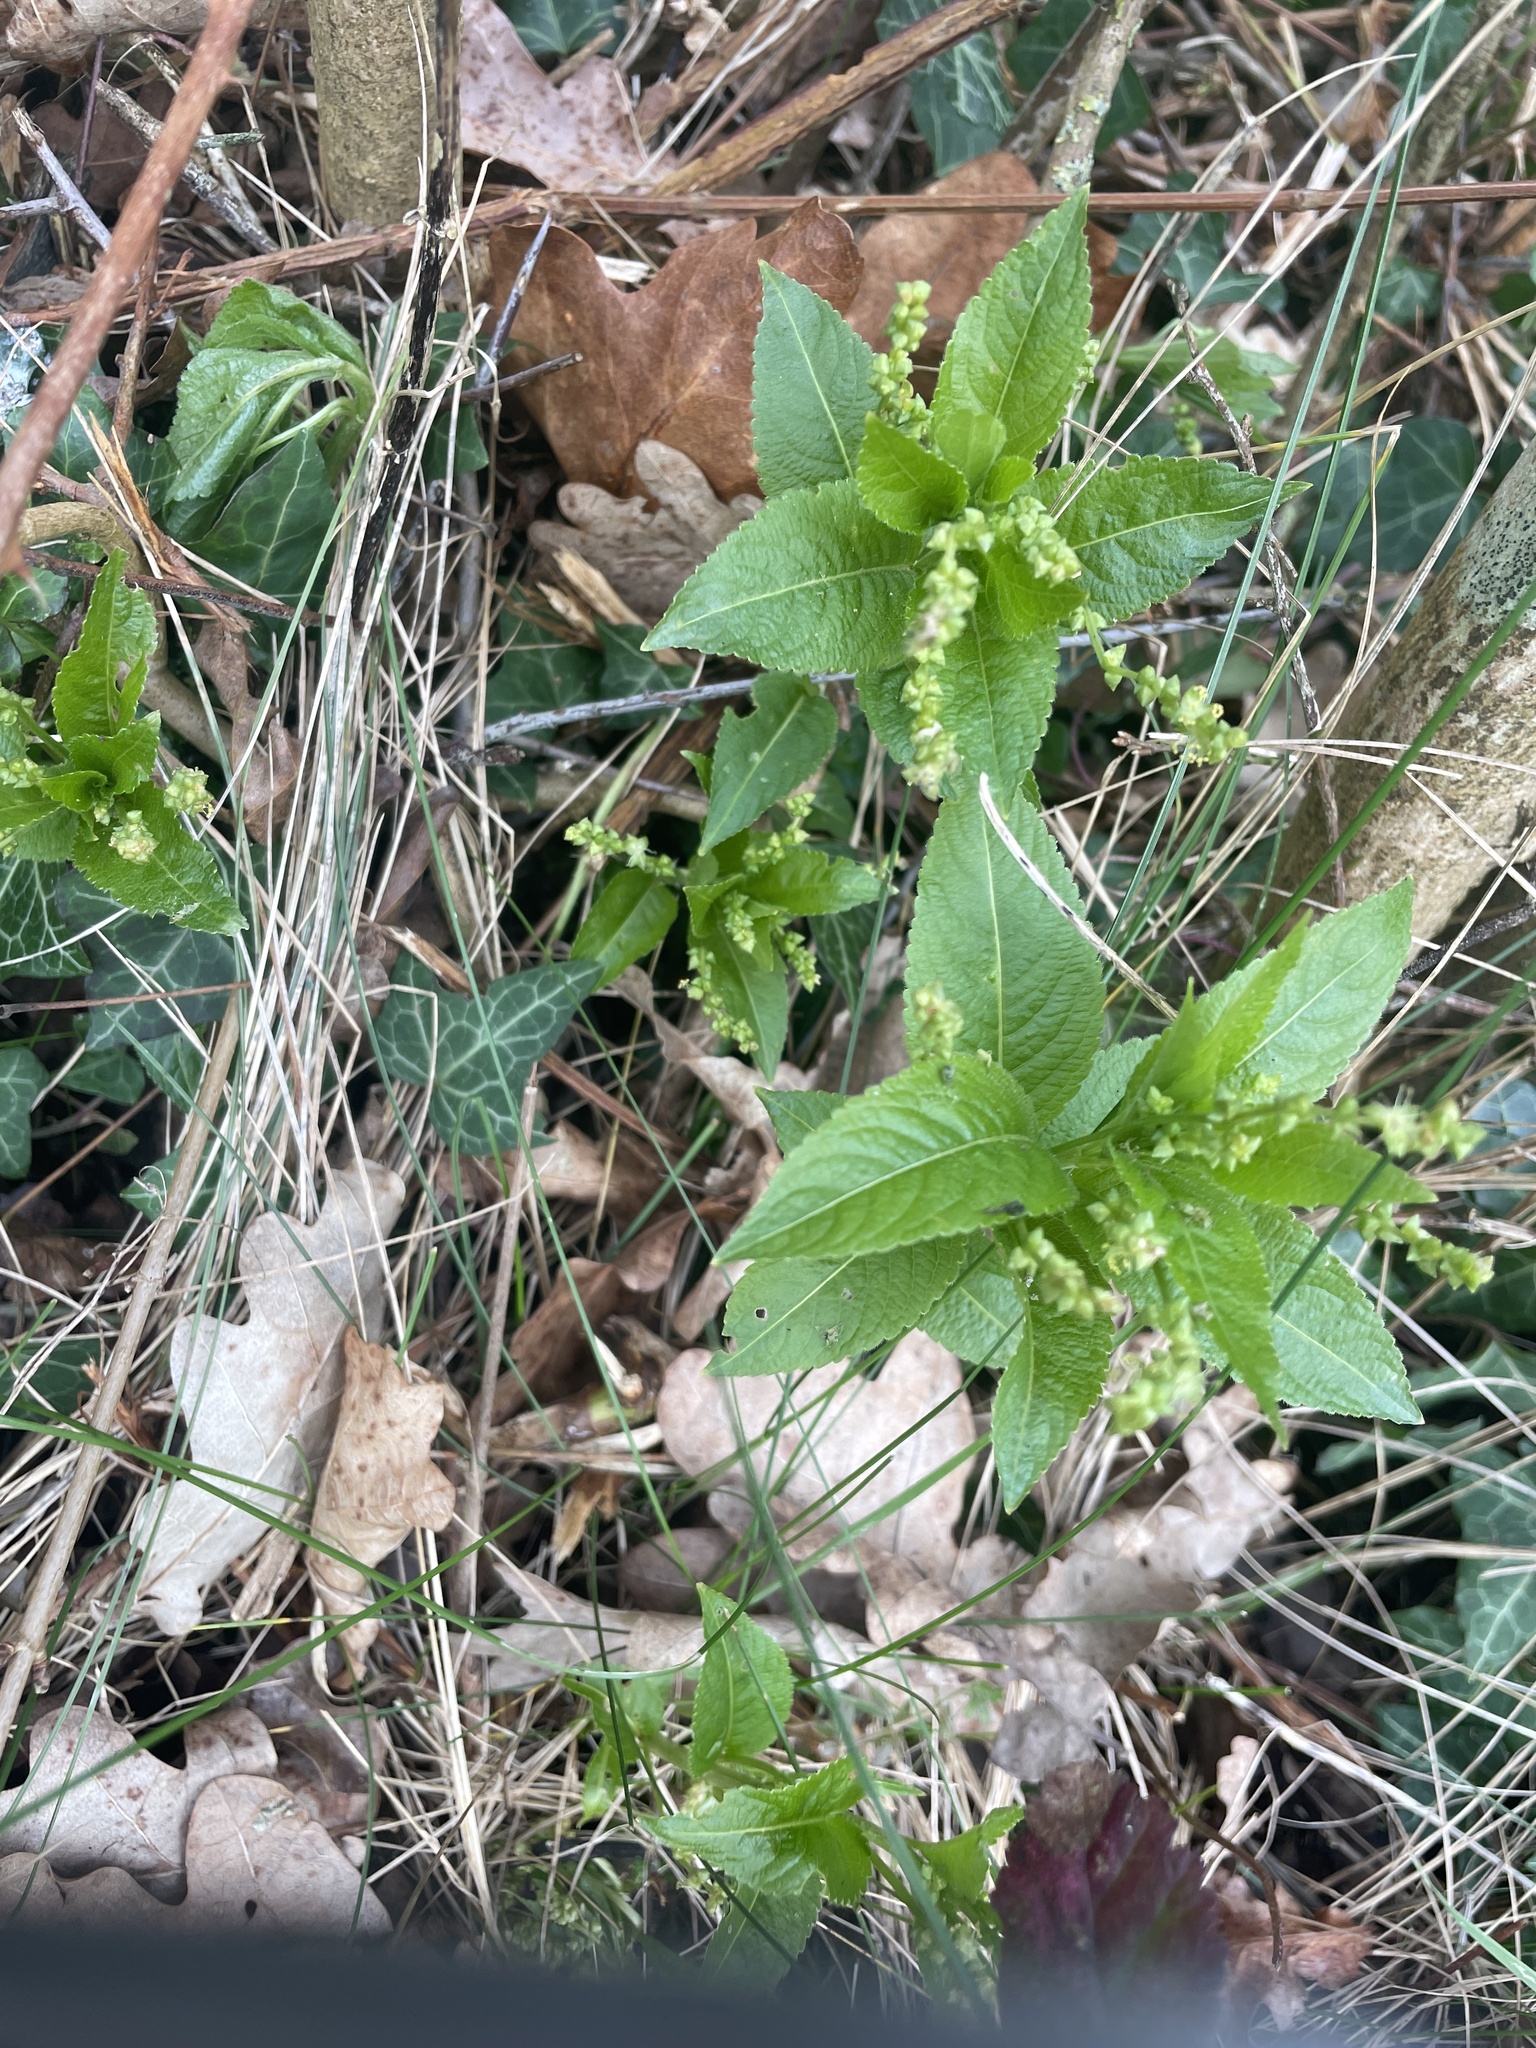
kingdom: Plantae
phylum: Tracheophyta
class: Magnoliopsida
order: Malpighiales
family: Euphorbiaceae
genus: Mercurialis
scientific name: Mercurialis perennis
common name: Dog mercury
